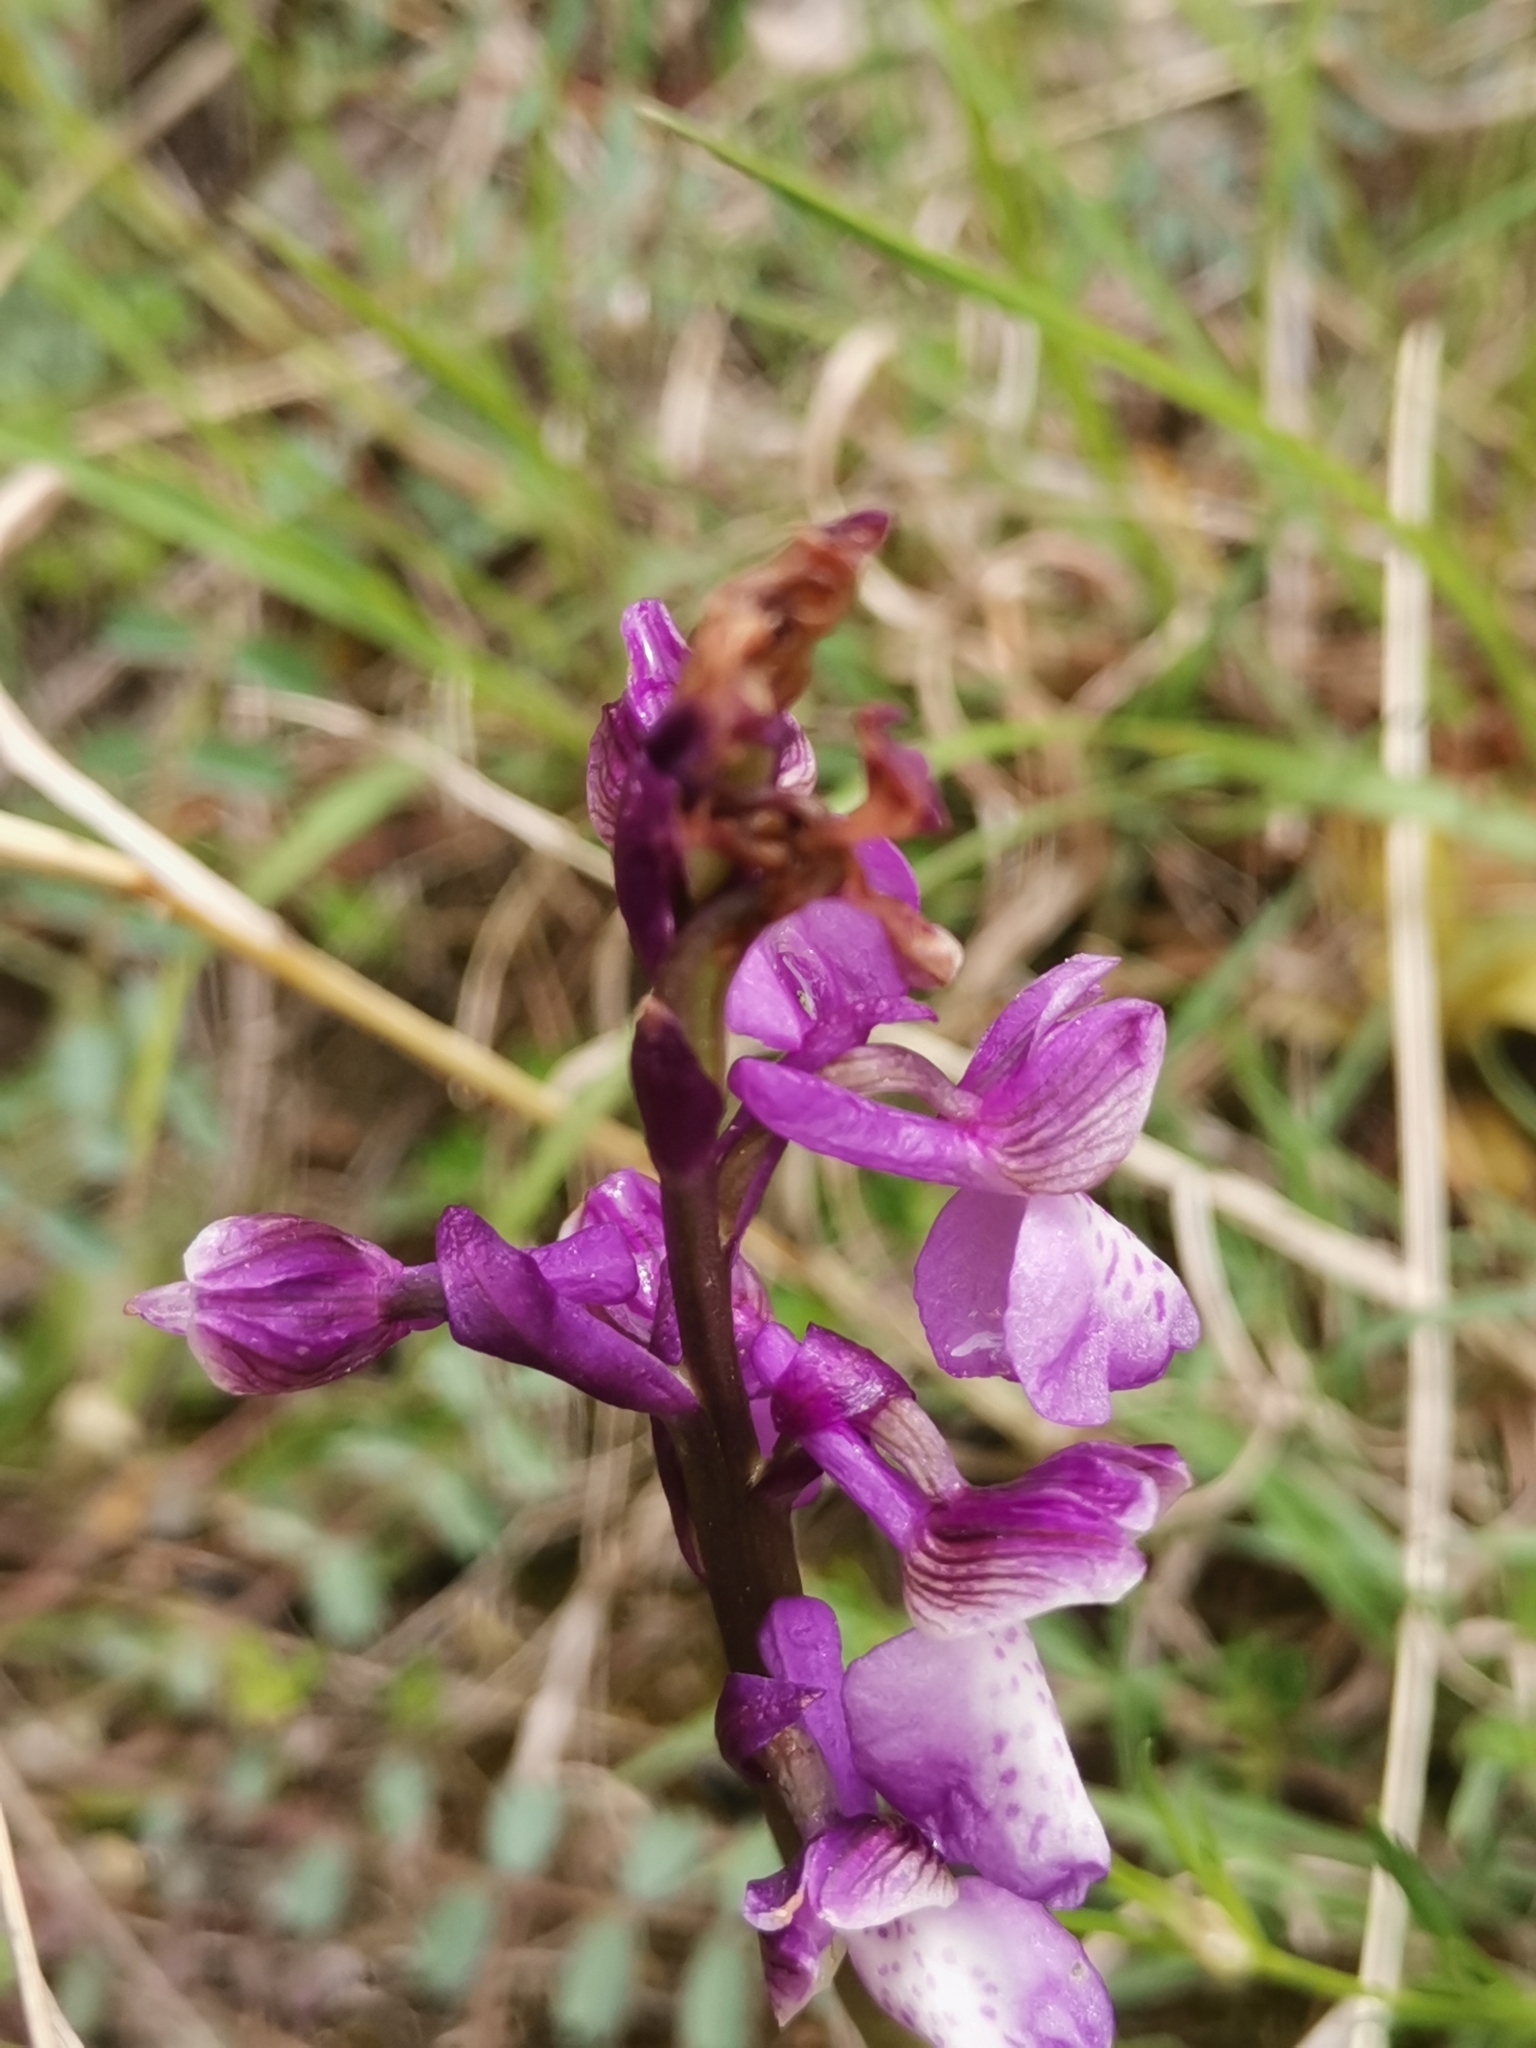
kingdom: Plantae
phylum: Tracheophyta
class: Liliopsida
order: Asparagales
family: Orchidaceae
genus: Anacamptis
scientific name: Anacamptis morio
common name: Green-winged orchid
